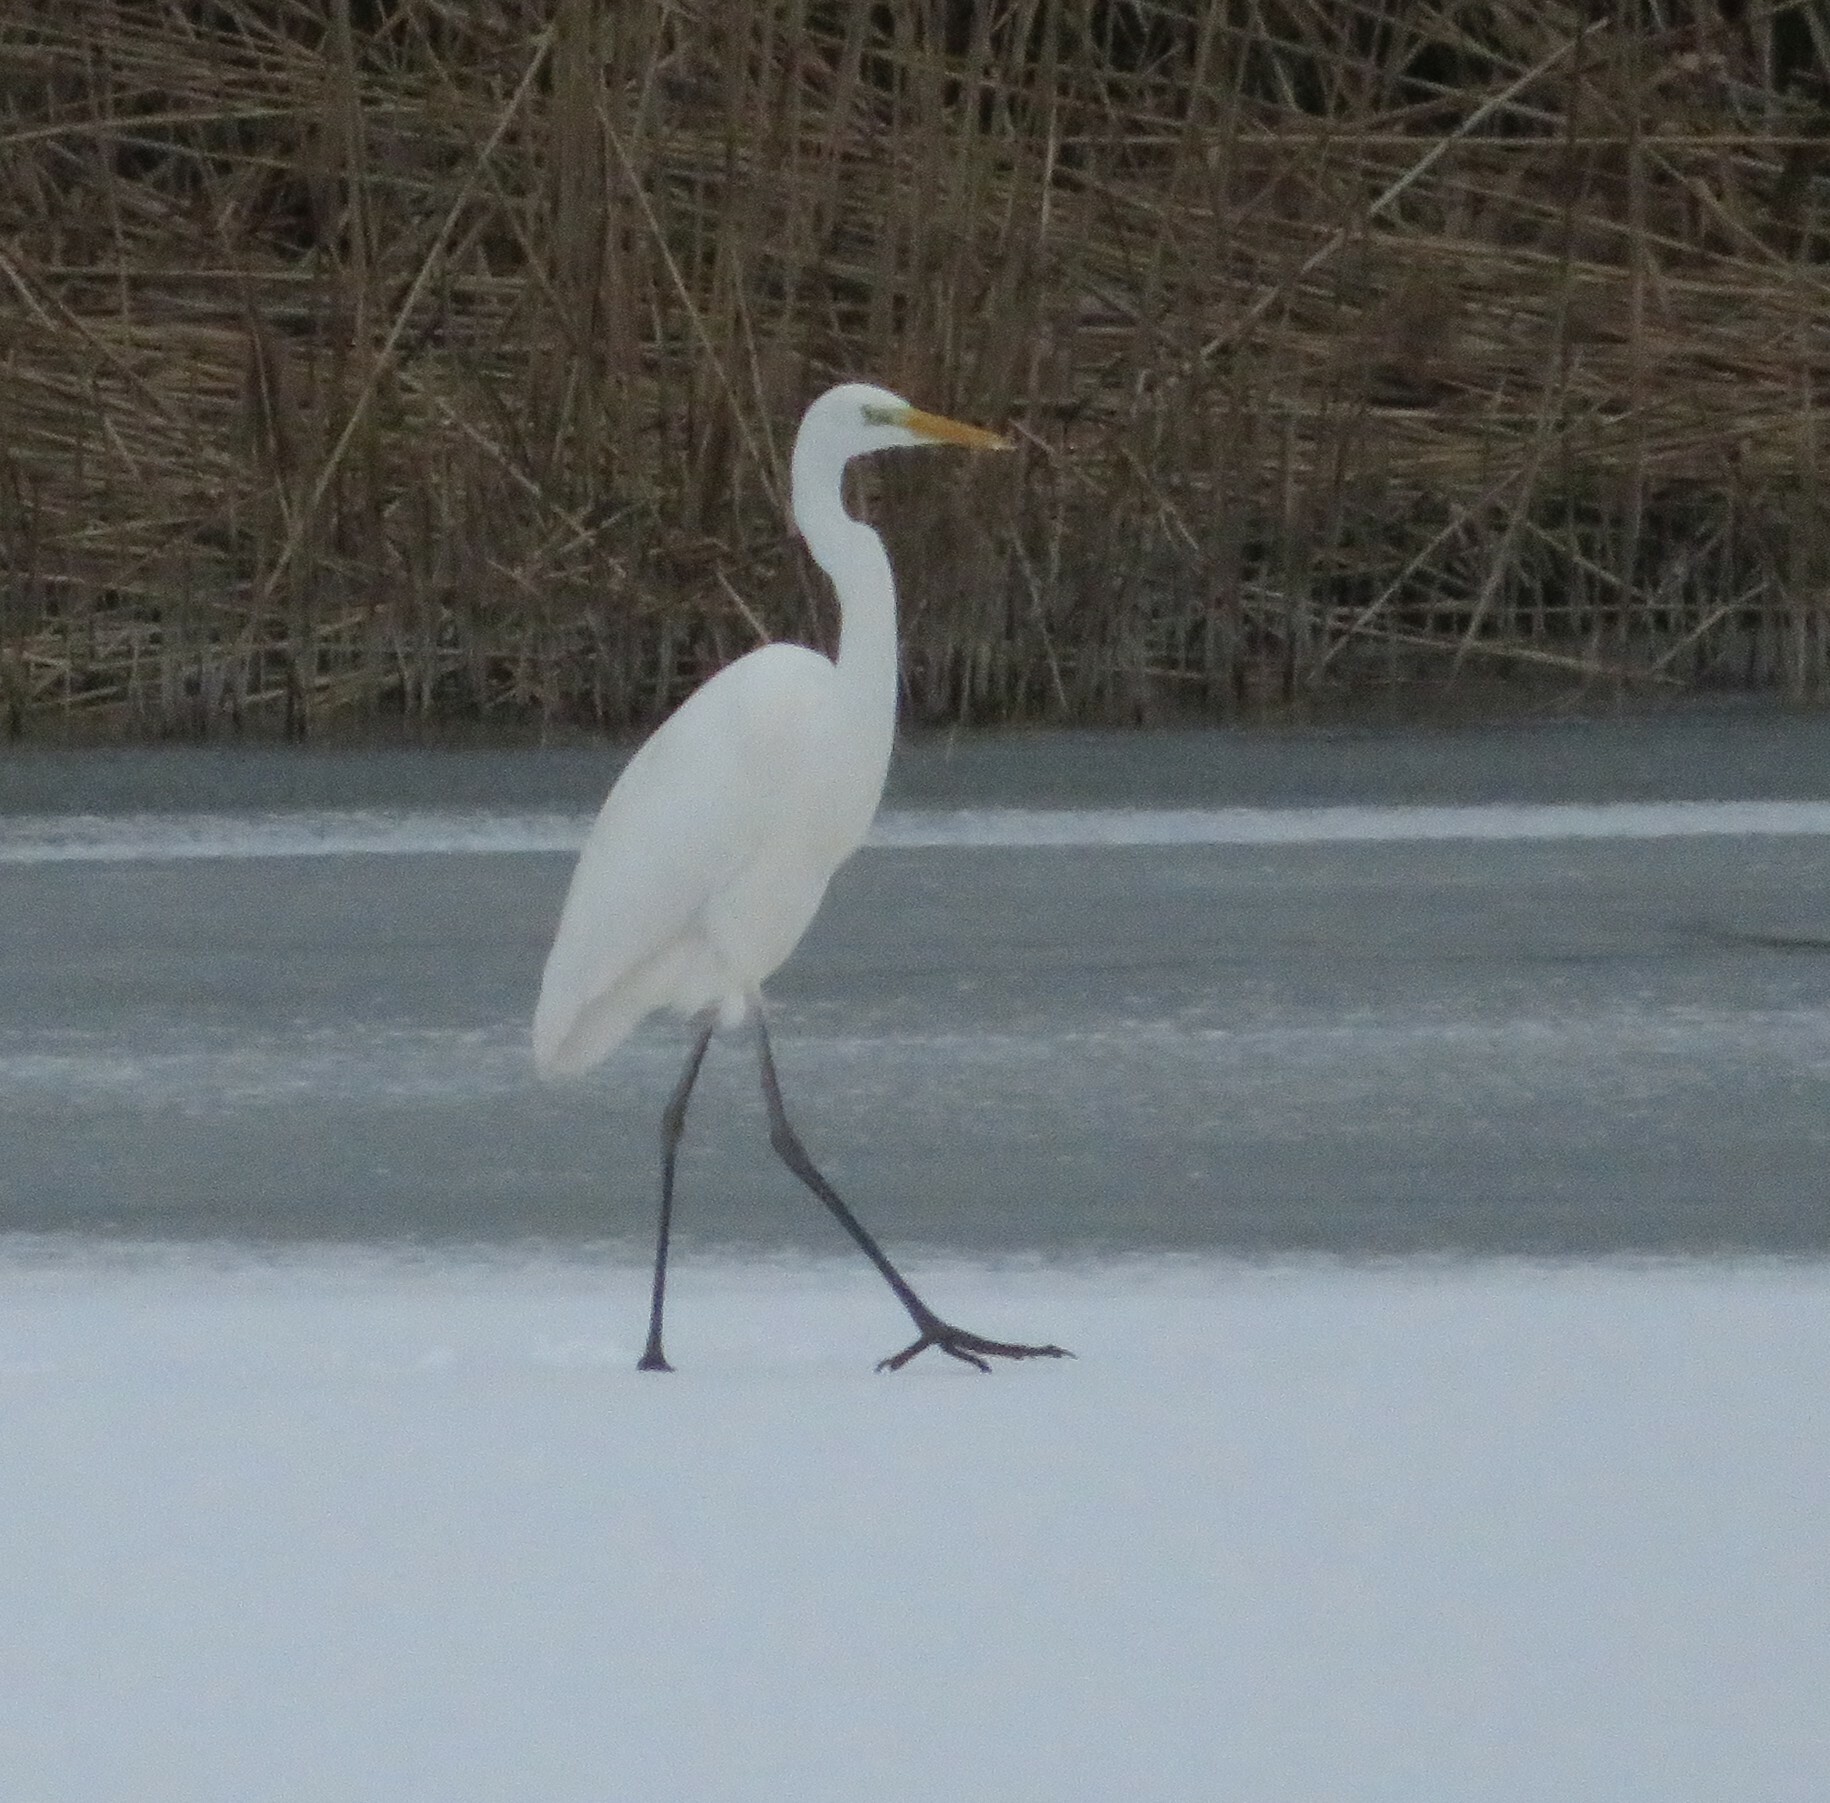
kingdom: Animalia
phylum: Chordata
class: Aves
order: Pelecaniformes
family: Ardeidae
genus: Ardea
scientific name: Ardea alba
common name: Great egret
